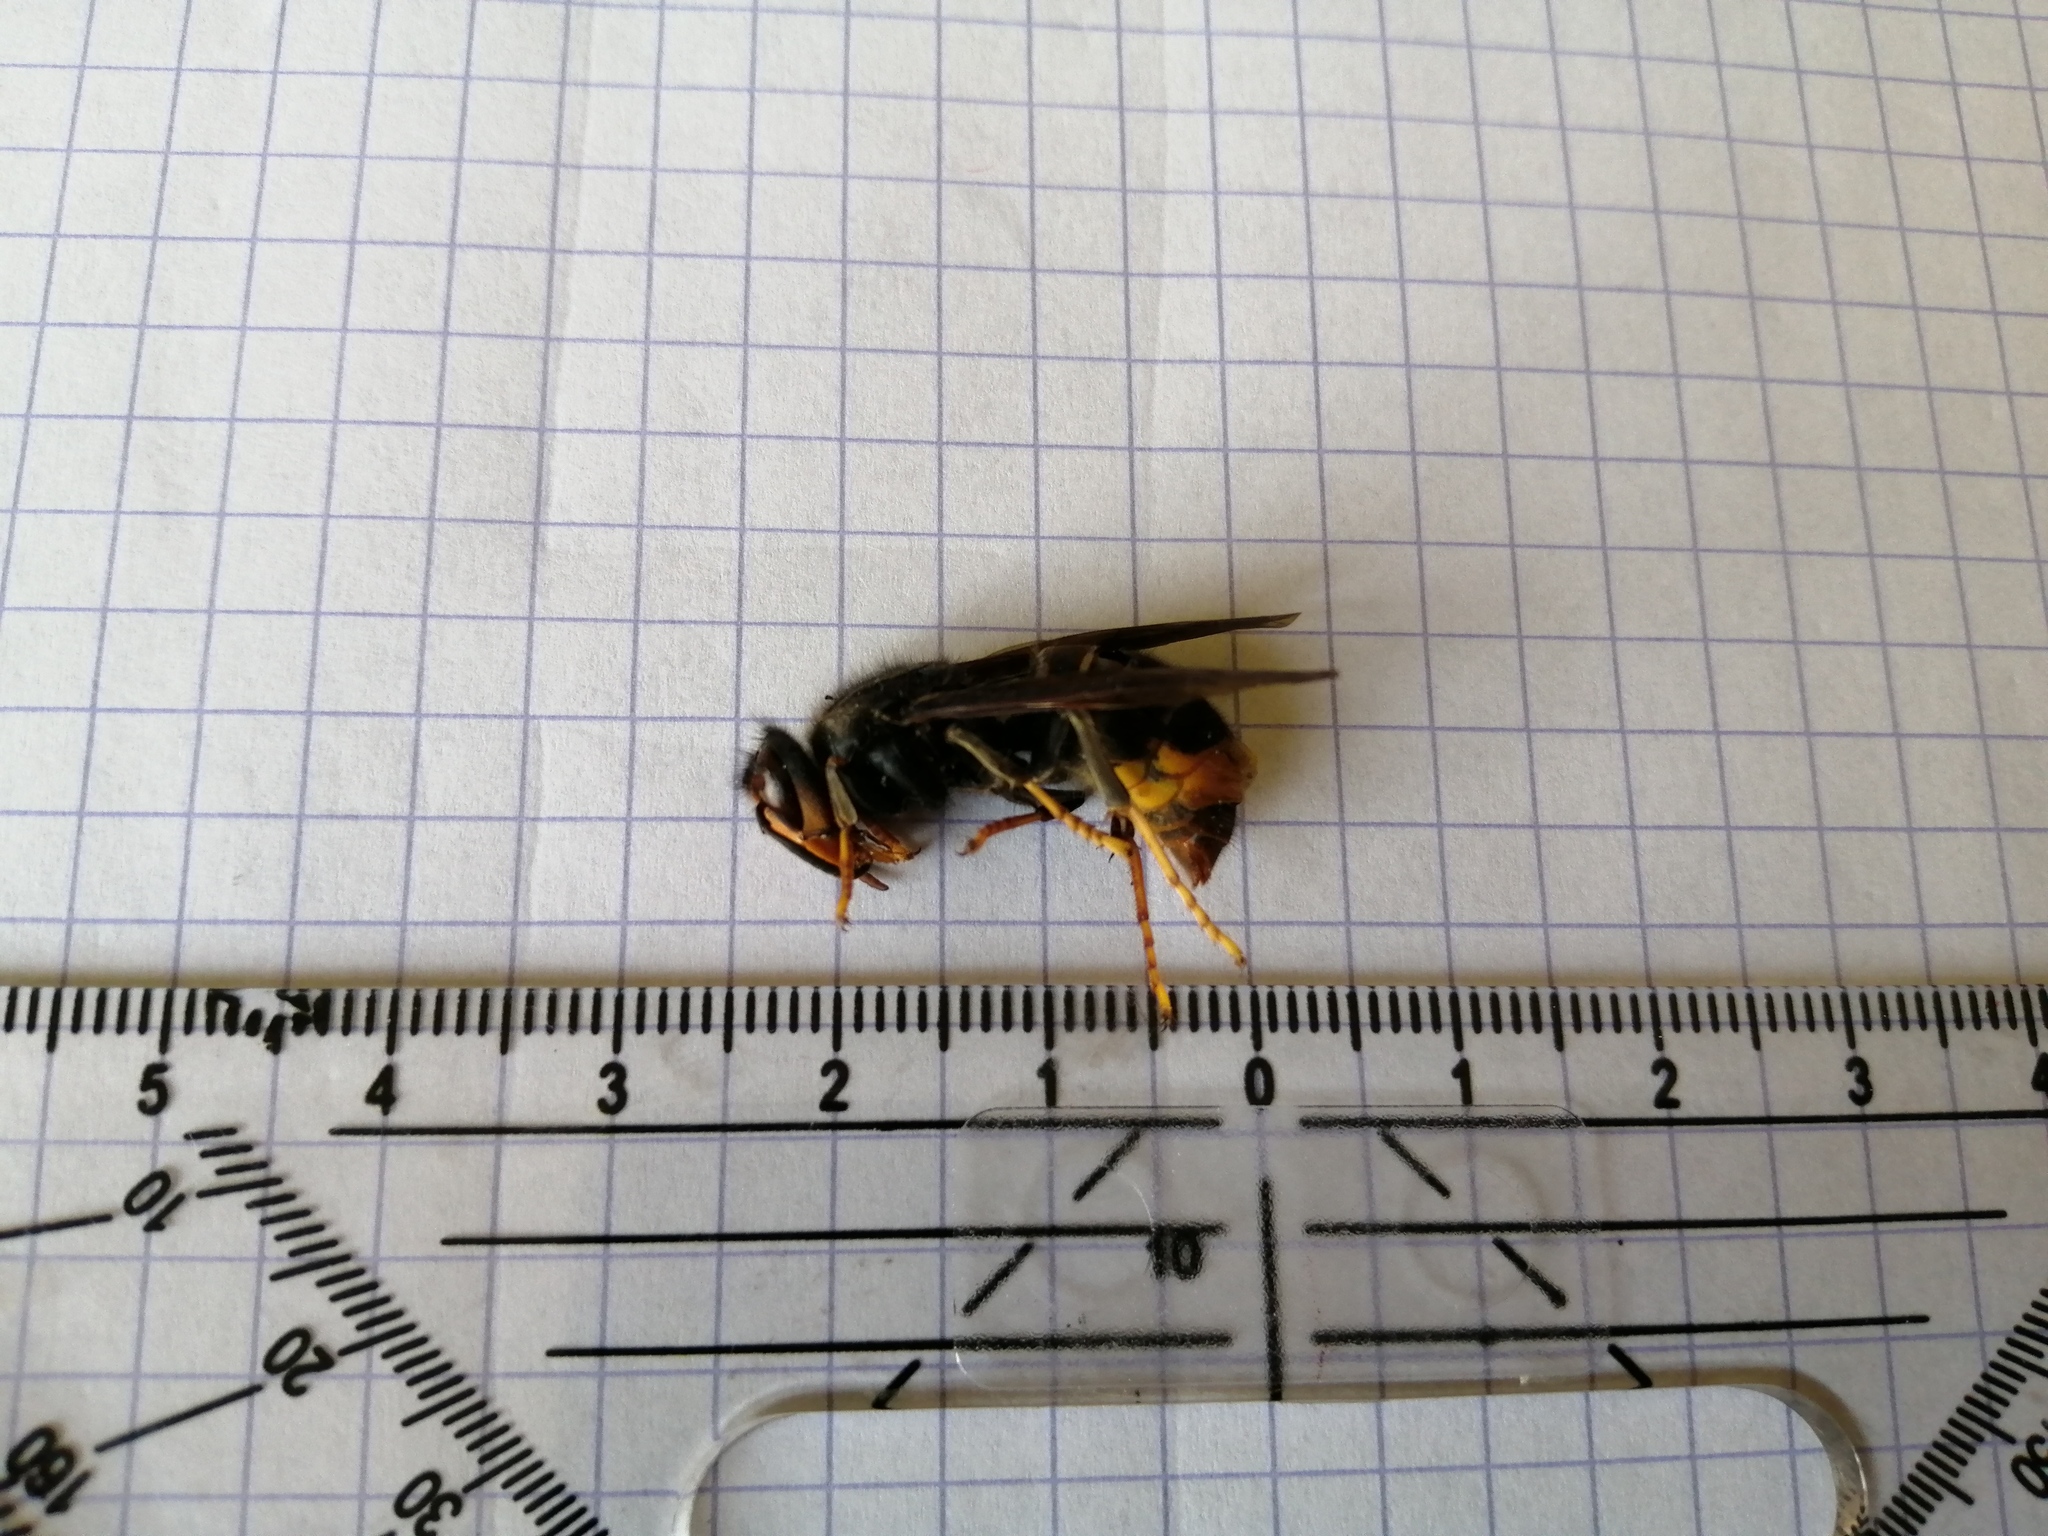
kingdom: Animalia
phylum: Arthropoda
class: Insecta
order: Hymenoptera
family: Vespidae
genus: Vespa
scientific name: Vespa velutina
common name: Asian hornet
